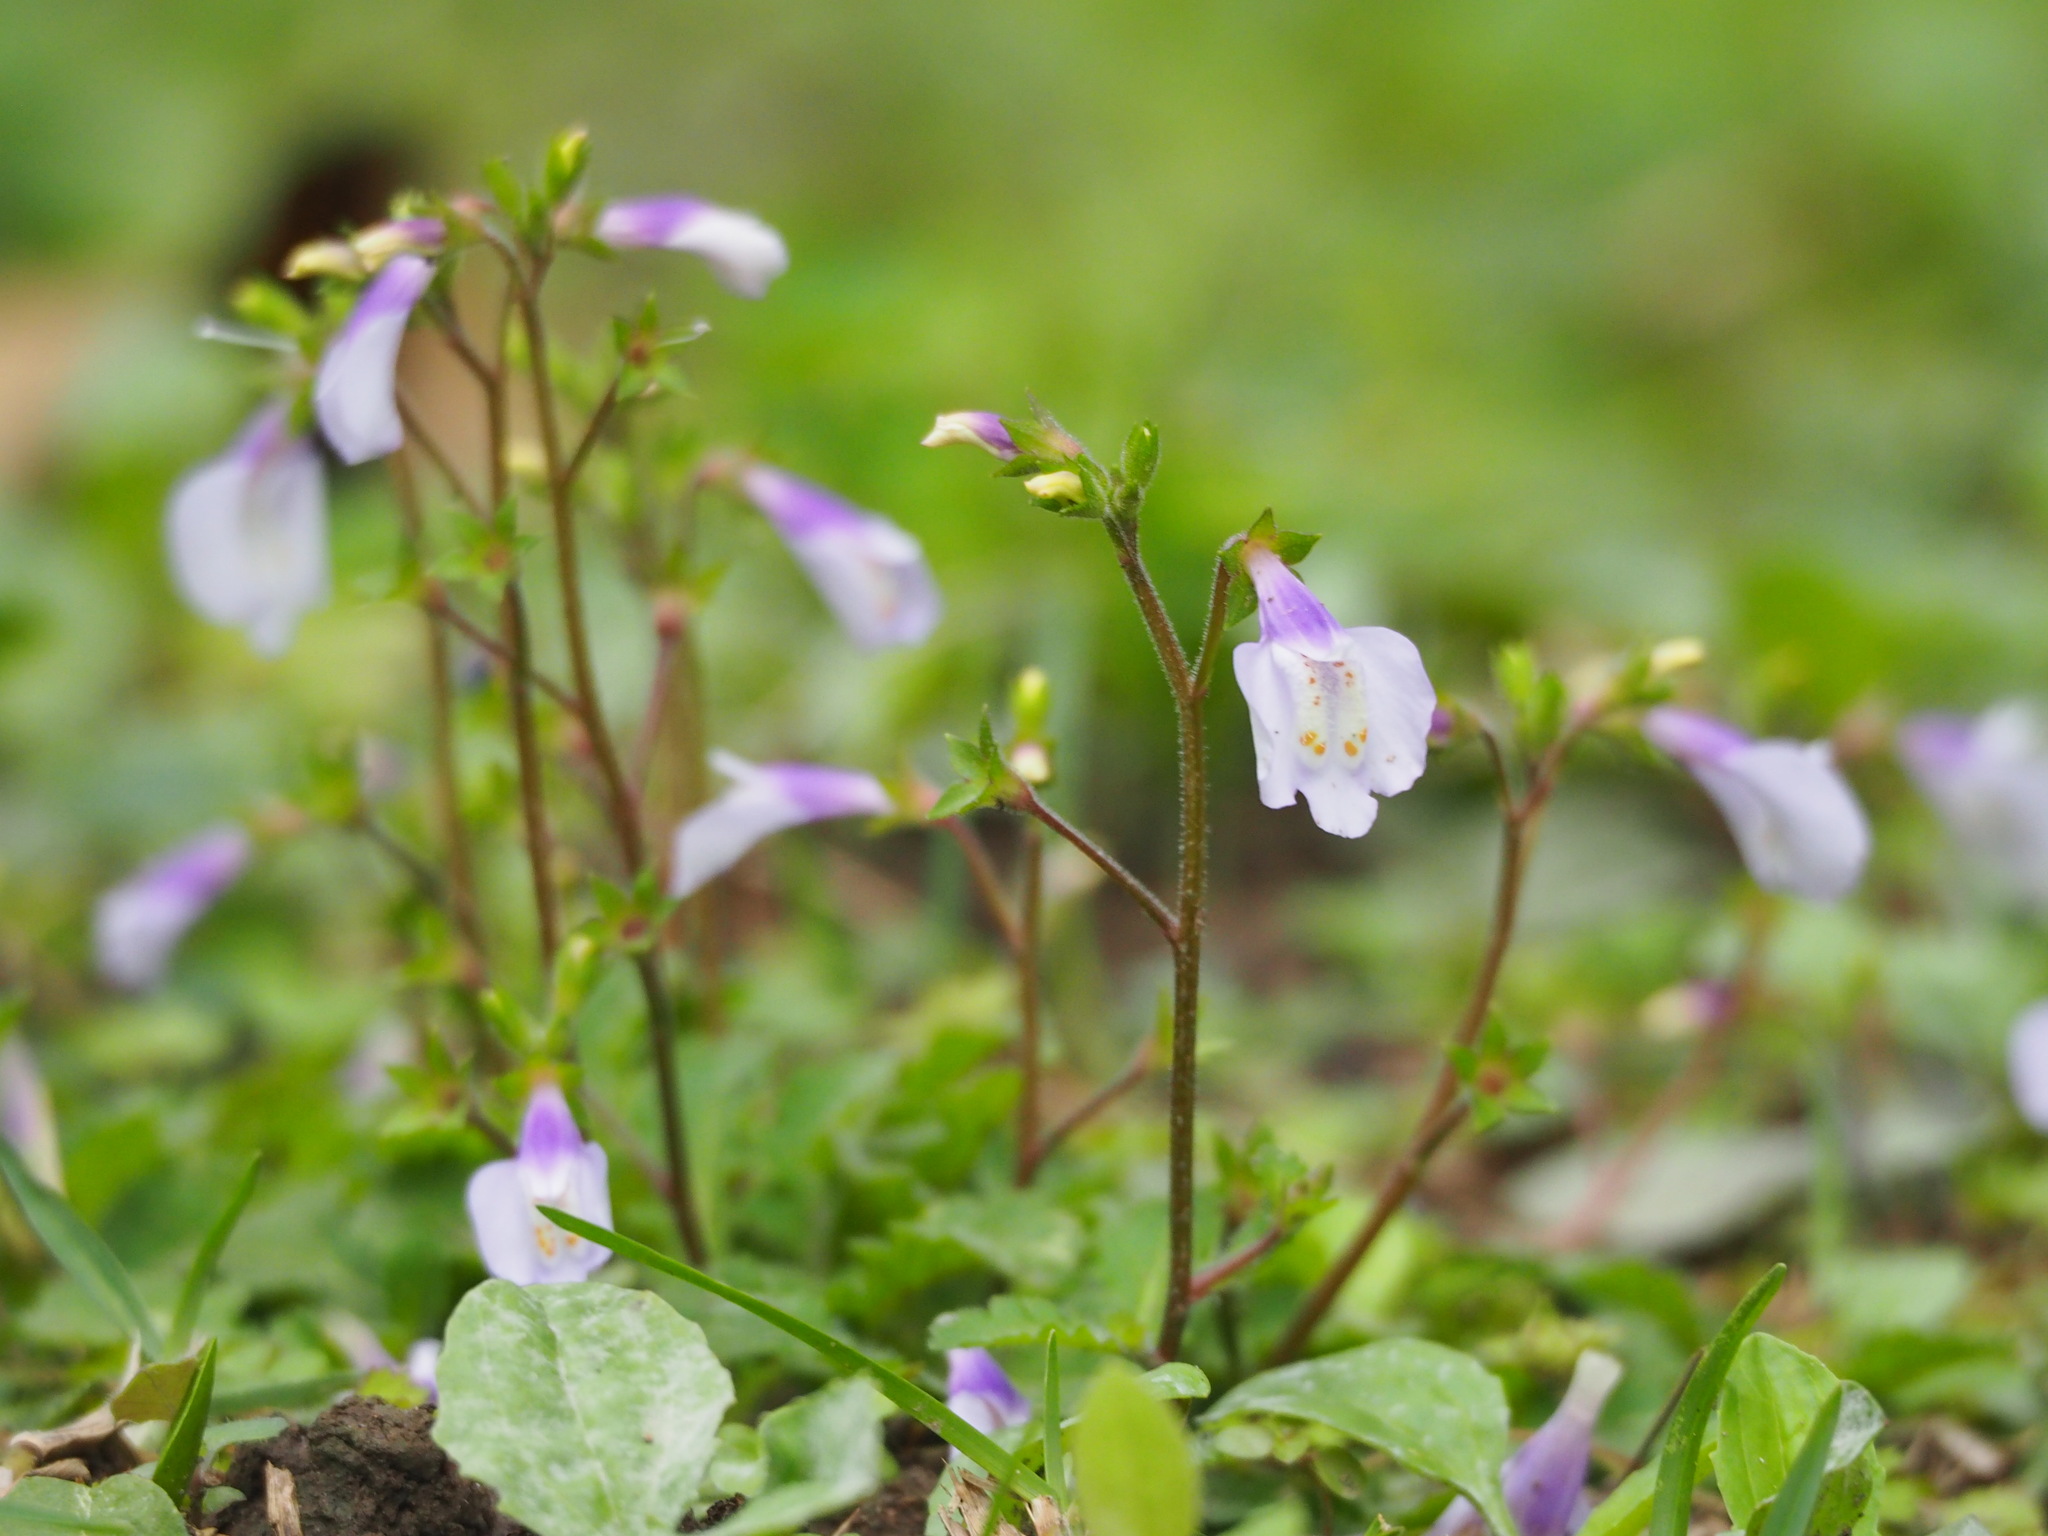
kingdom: Plantae
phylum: Tracheophyta
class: Magnoliopsida
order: Lamiales
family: Mazaceae
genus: Mazus
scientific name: Mazus fauriei
